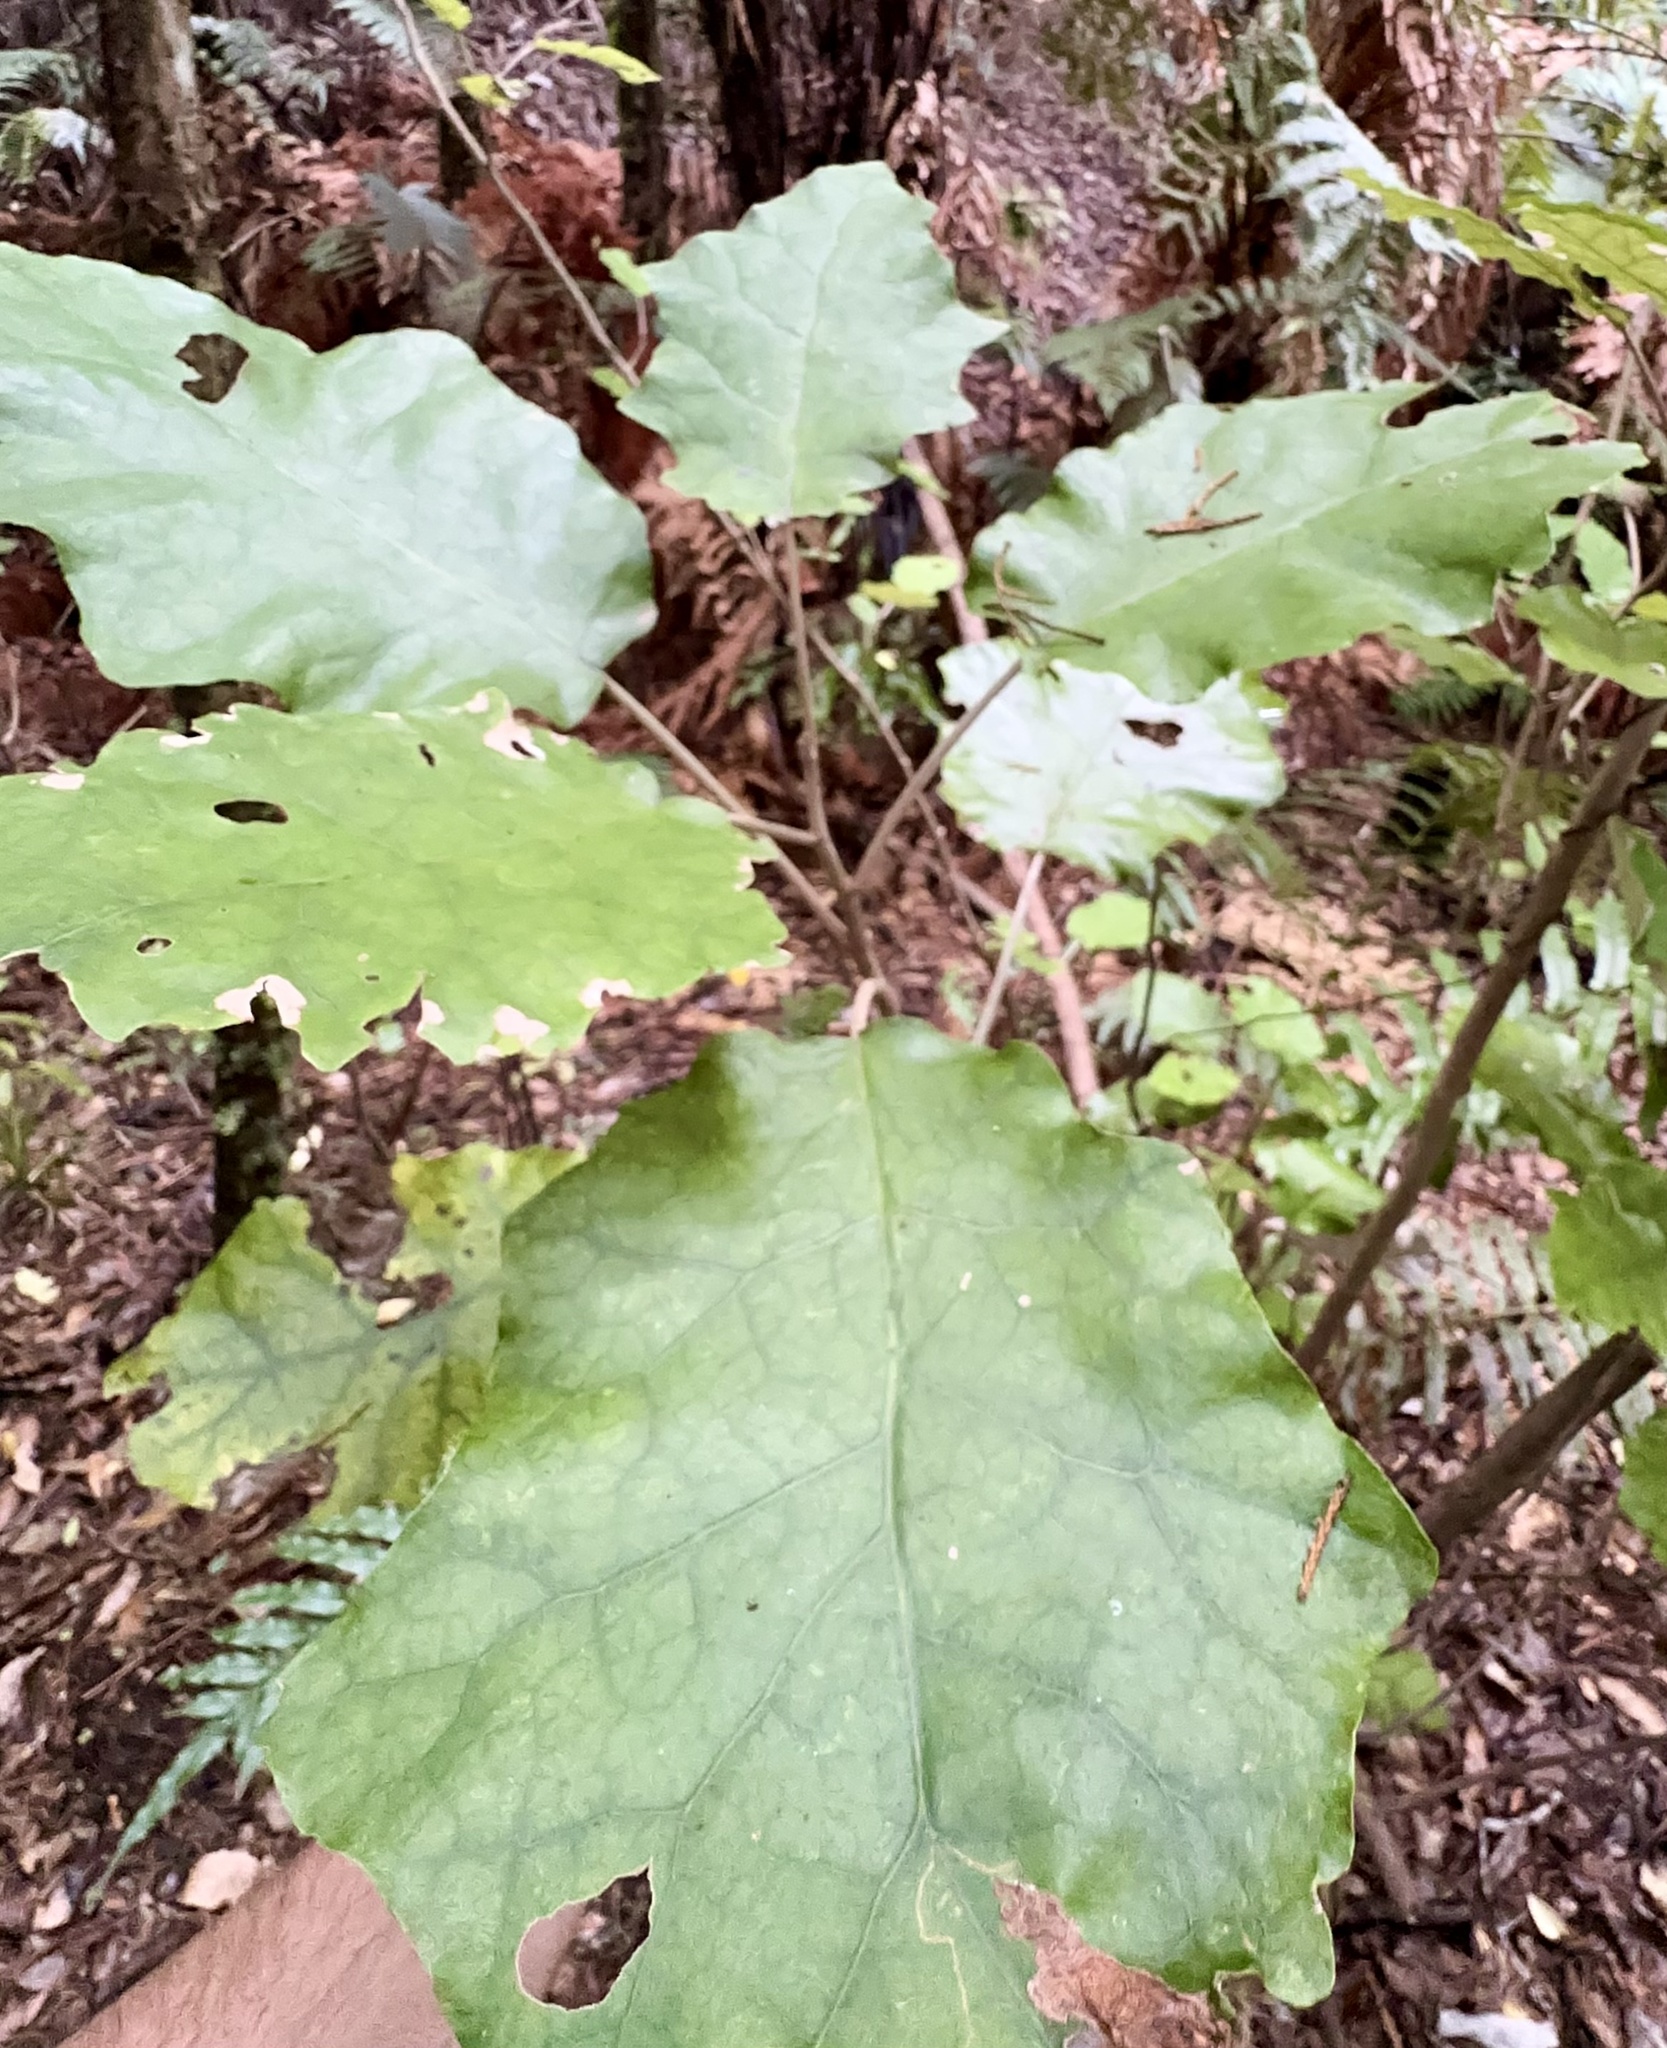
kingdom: Plantae
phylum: Tracheophyta
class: Magnoliopsida
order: Asterales
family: Asteraceae
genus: Brachyglottis
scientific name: Brachyglottis repanda
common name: Hedge ragwort
